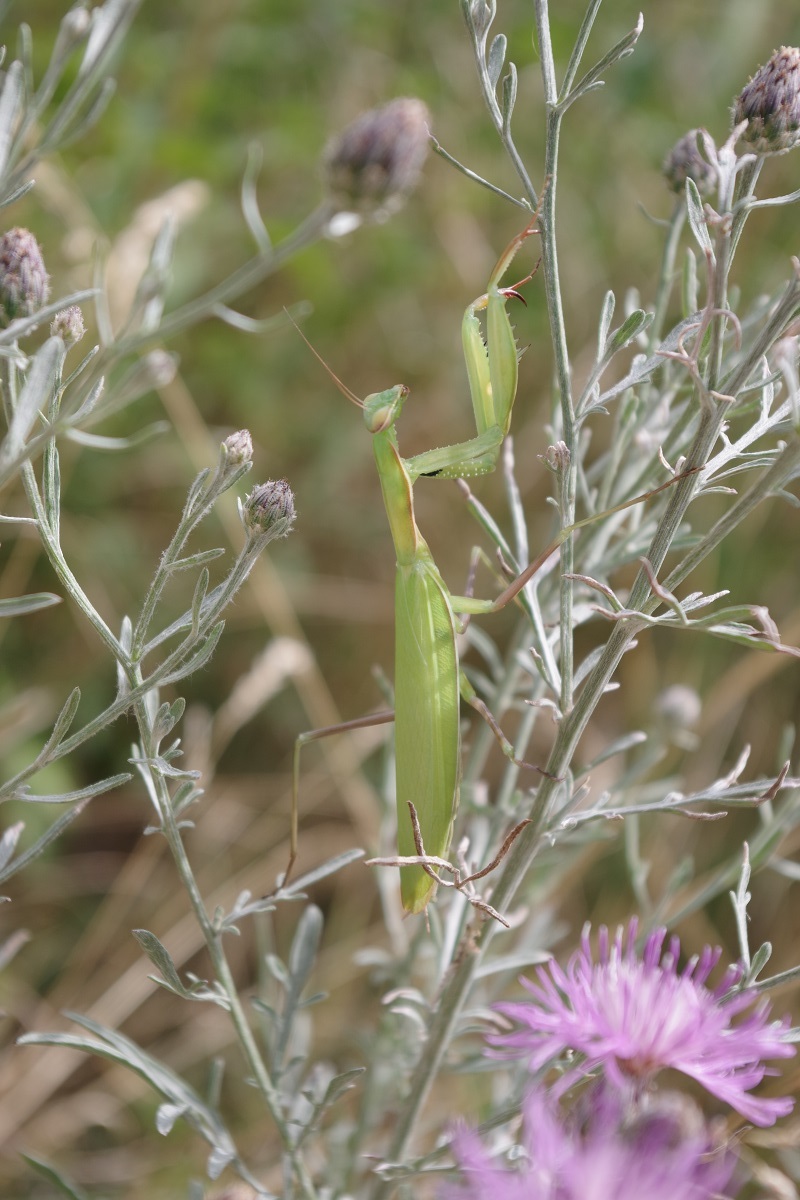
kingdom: Animalia
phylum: Arthropoda
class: Insecta
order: Mantodea
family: Mantidae
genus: Mantis
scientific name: Mantis religiosa
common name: Praying mantis
